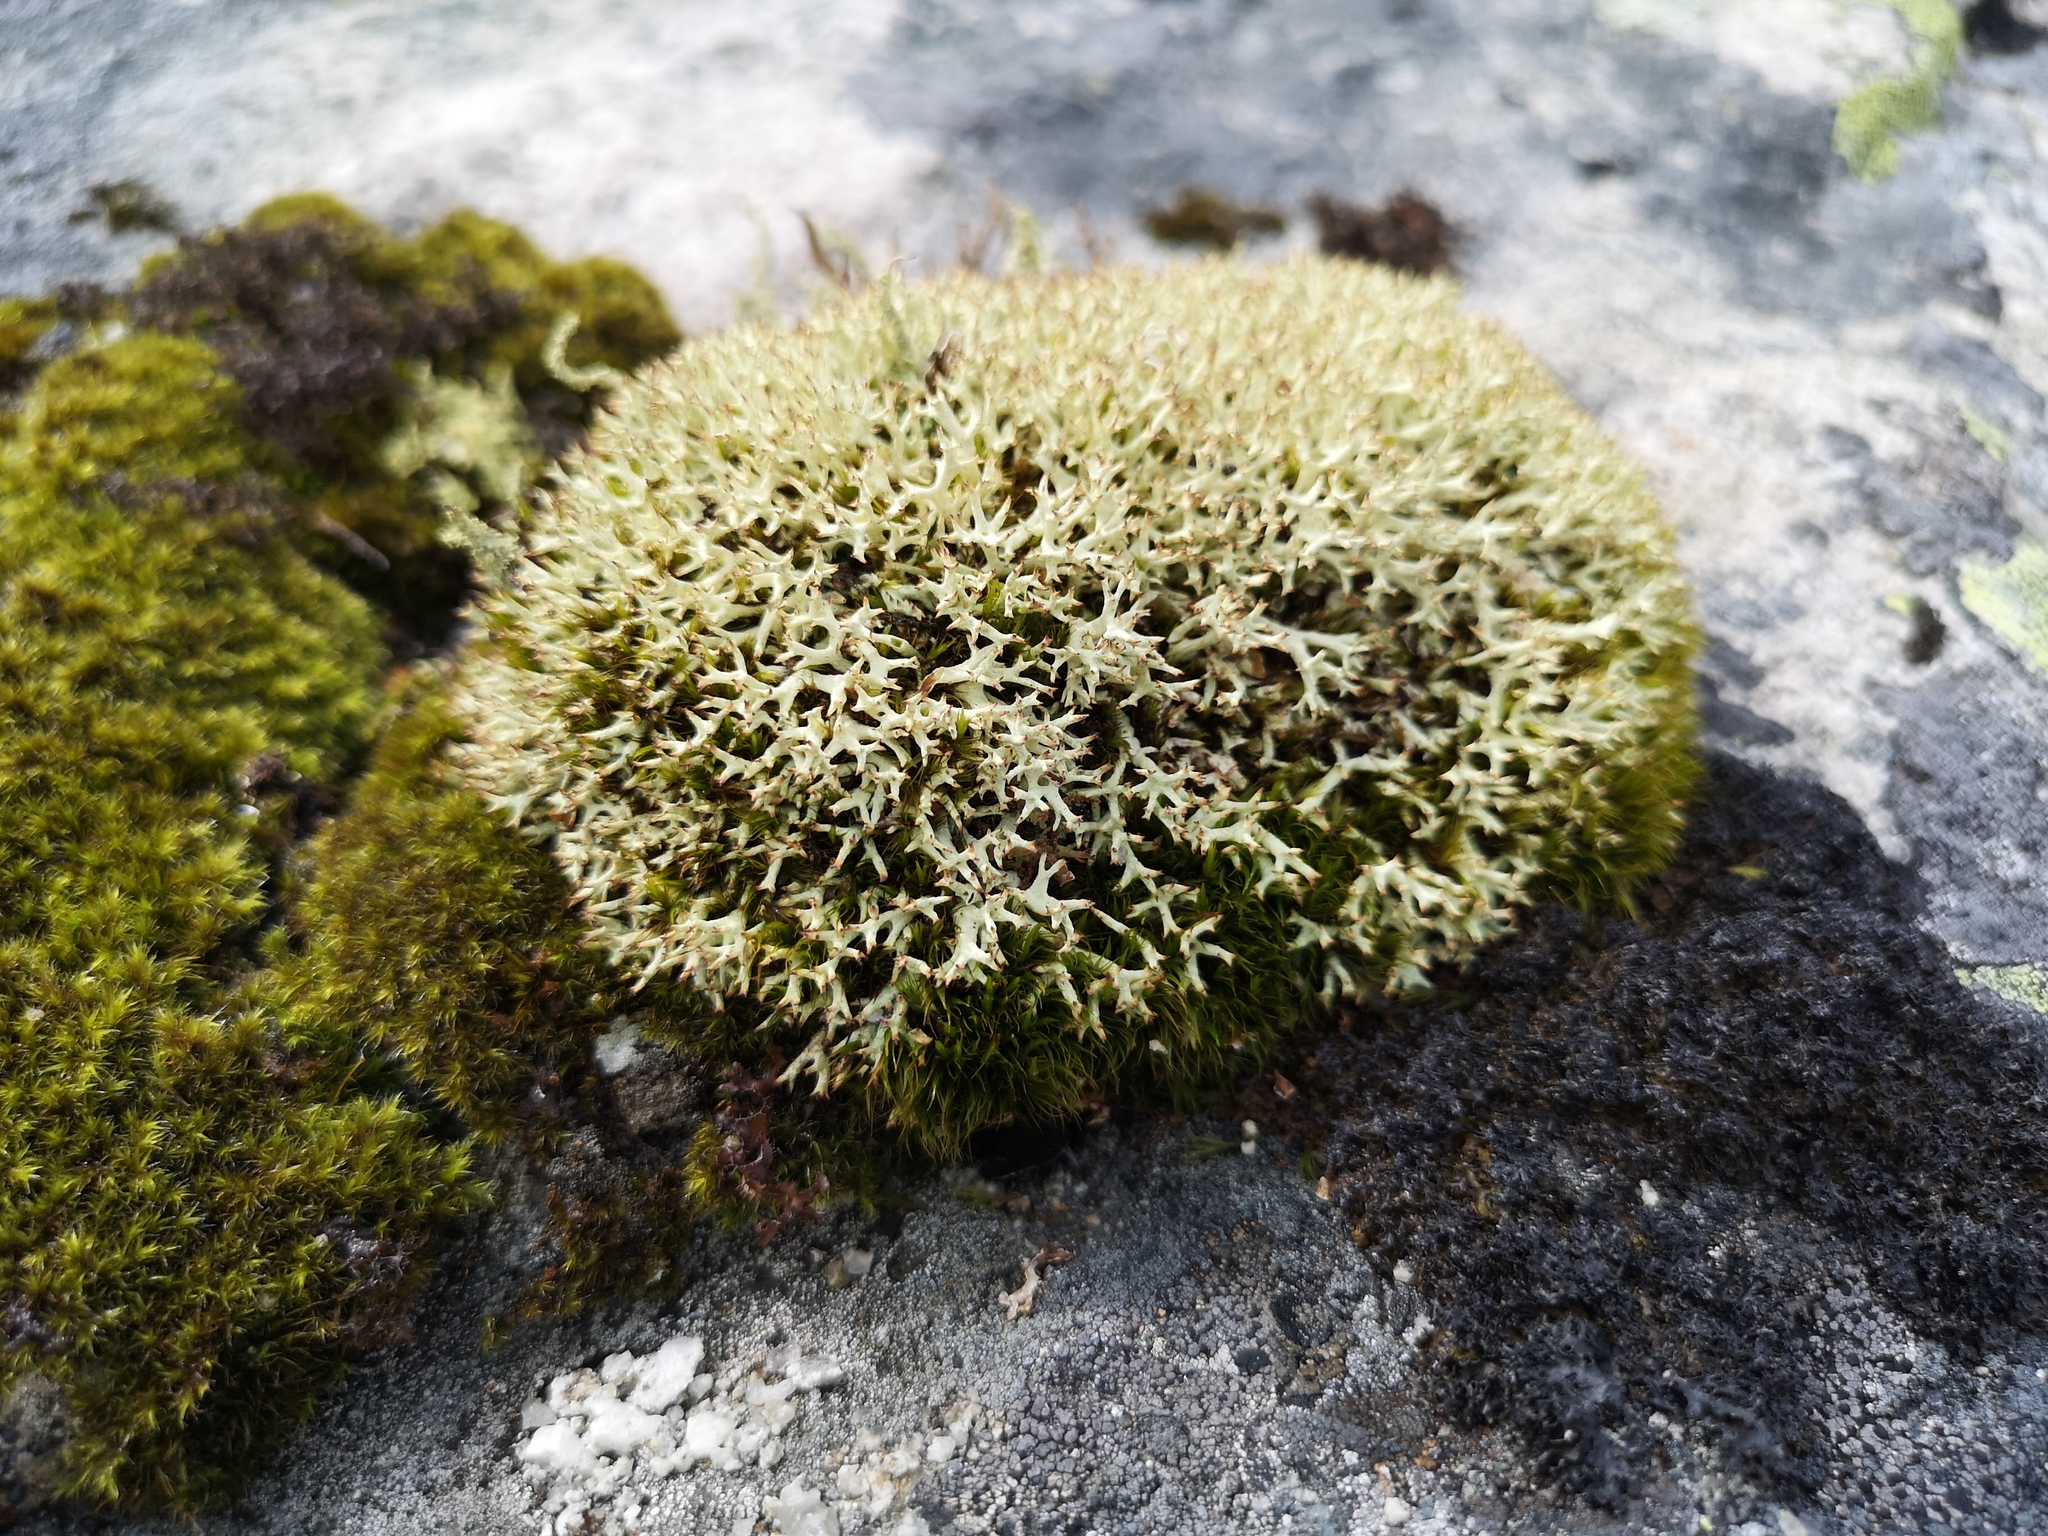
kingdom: Fungi
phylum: Ascomycota
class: Lecanoromycetes
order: Lecanorales
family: Cladoniaceae
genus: Cladonia
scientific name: Cladonia uncialis
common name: Thorn lichen
